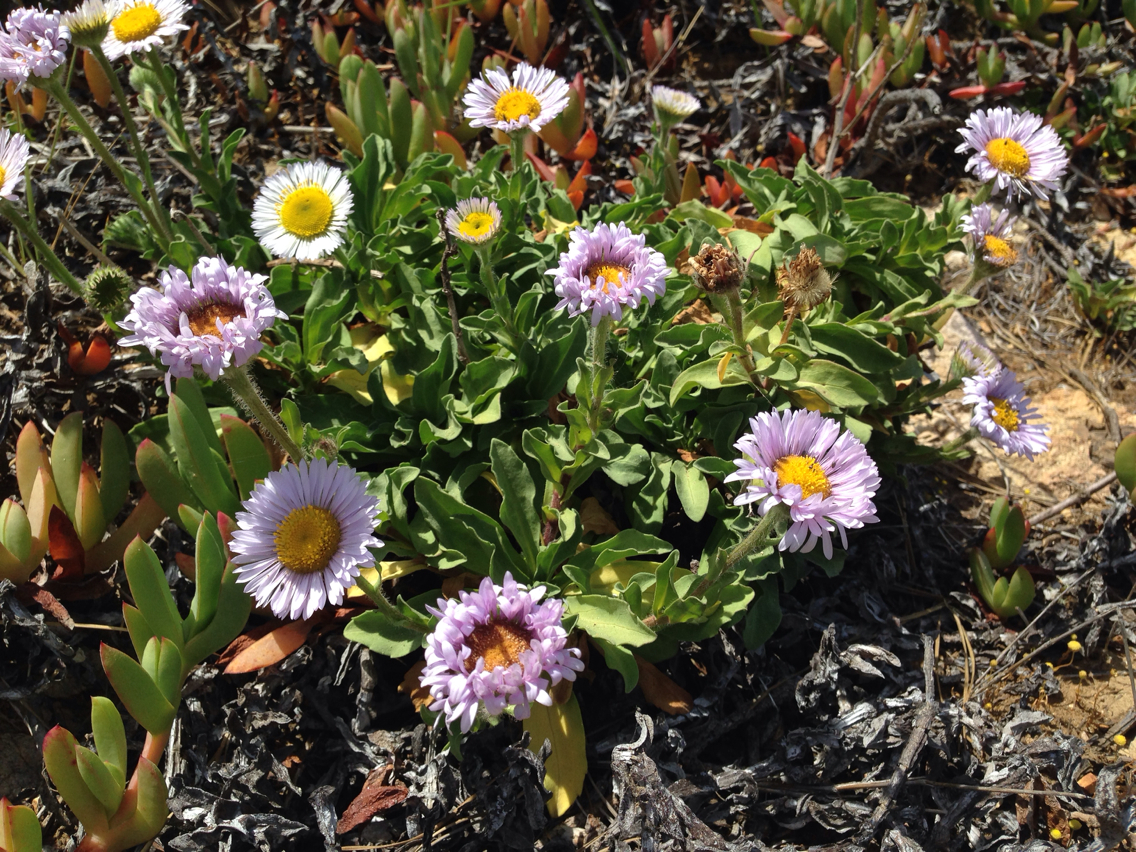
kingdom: Plantae
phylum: Tracheophyta
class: Magnoliopsida
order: Asterales
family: Asteraceae
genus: Erigeron
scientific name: Erigeron glaucus
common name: Seaside daisy
